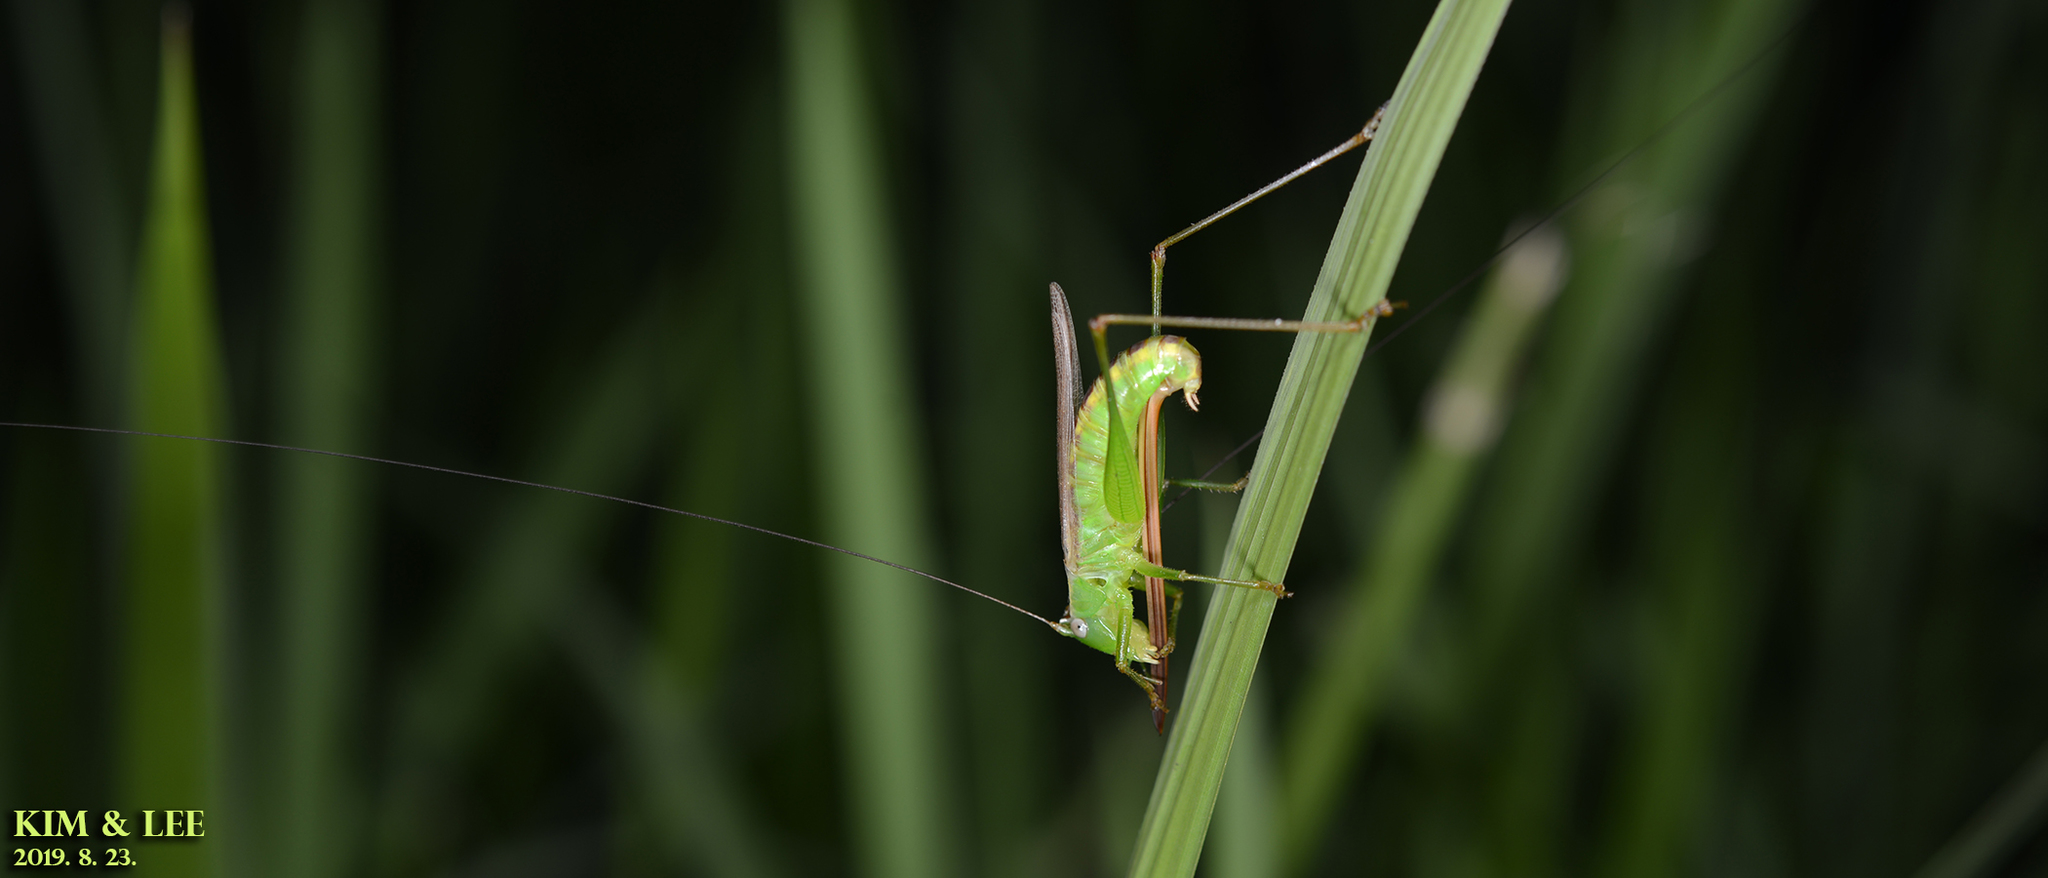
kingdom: Animalia
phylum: Arthropoda
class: Insecta
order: Orthoptera
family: Tettigoniidae
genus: Conocephalus
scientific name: Conocephalus exemptus
